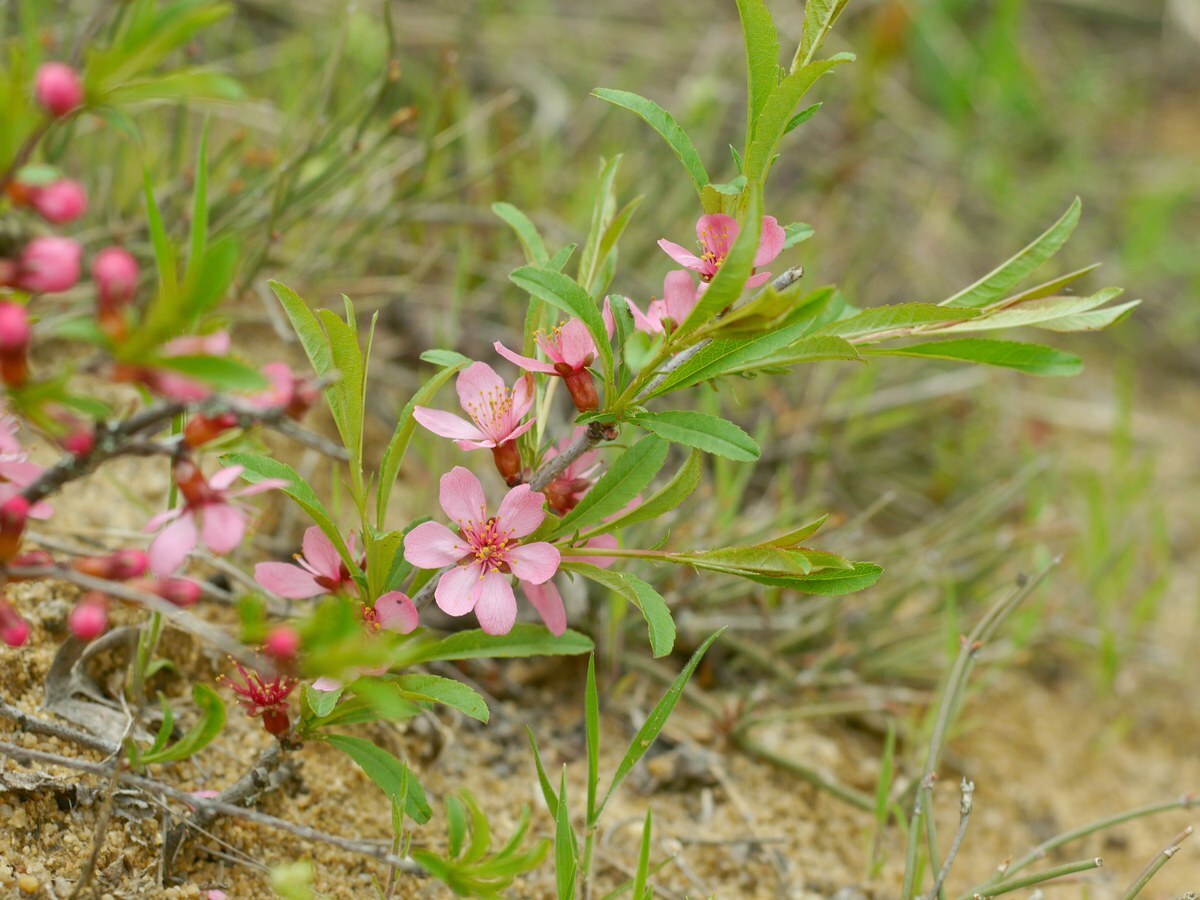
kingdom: Plantae
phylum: Tracheophyta
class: Magnoliopsida
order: Rosales
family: Rosaceae
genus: Prunus
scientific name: Prunus tenella
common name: Dwarf russian almond
